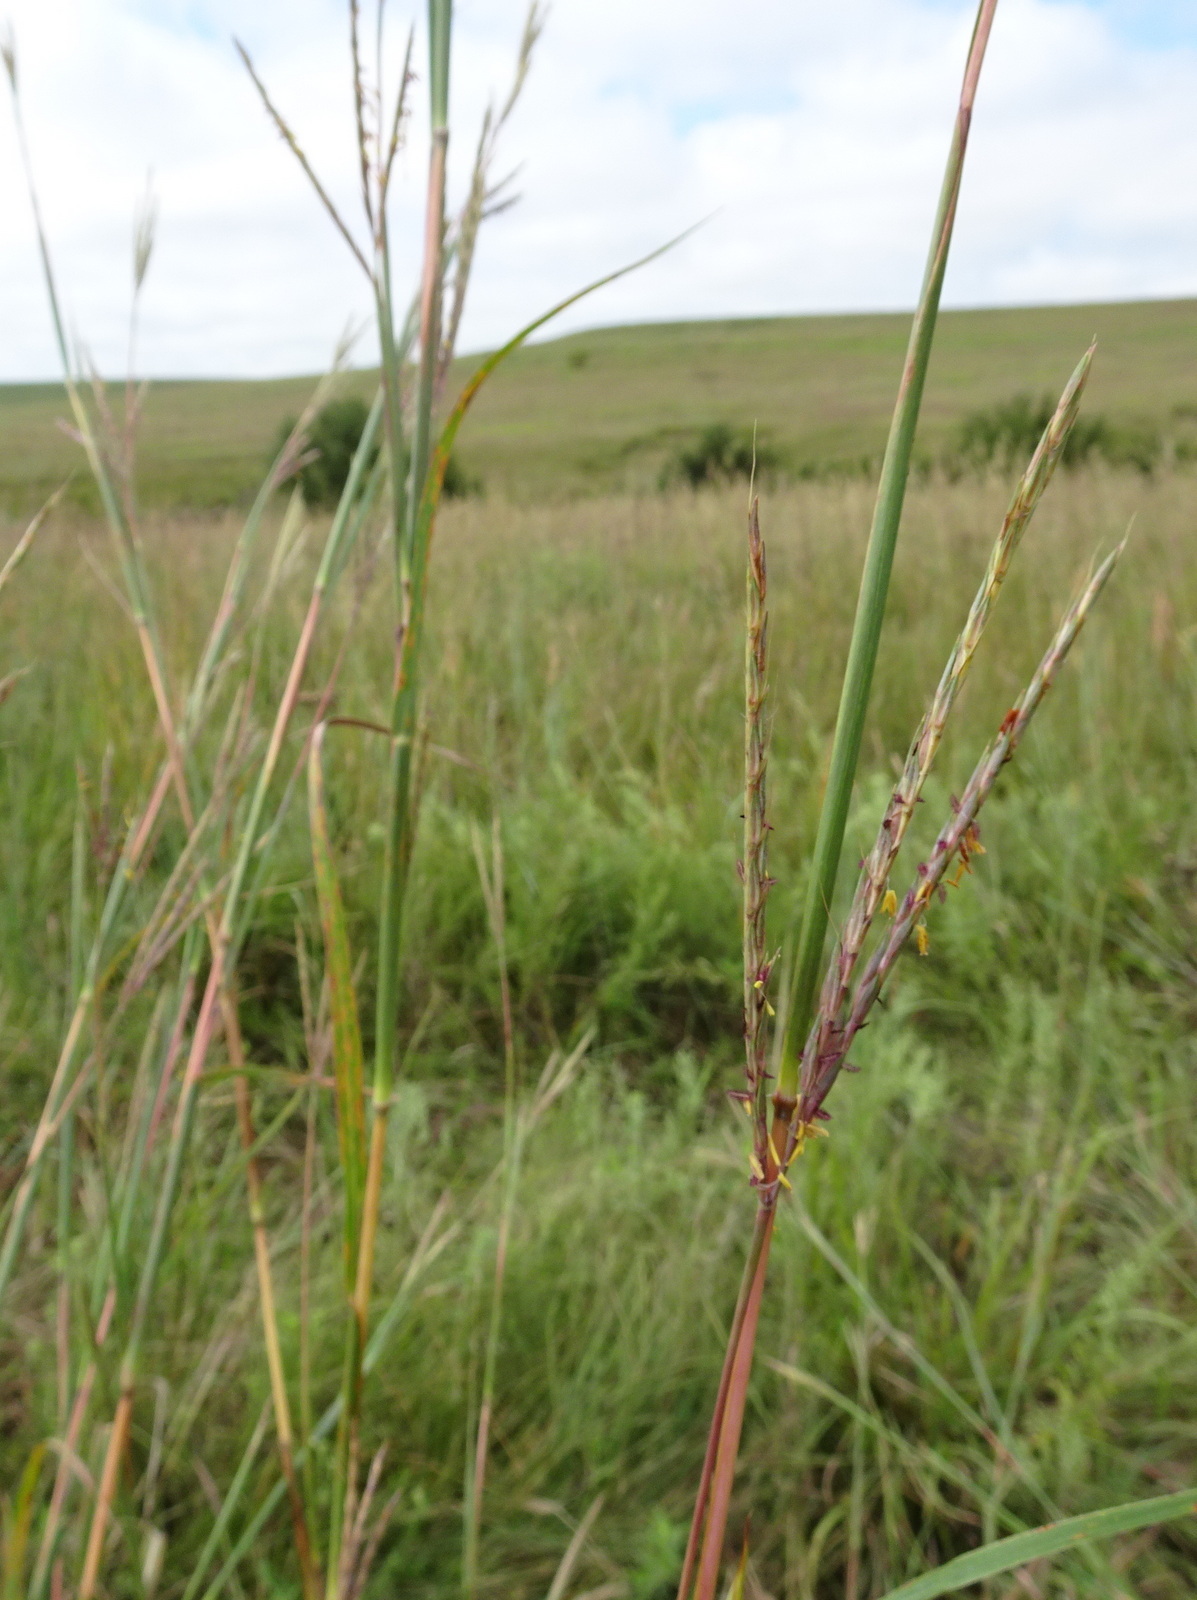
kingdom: Plantae
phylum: Tracheophyta
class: Liliopsida
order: Poales
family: Poaceae
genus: Andropogon
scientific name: Andropogon gerardi
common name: Big bluestem
